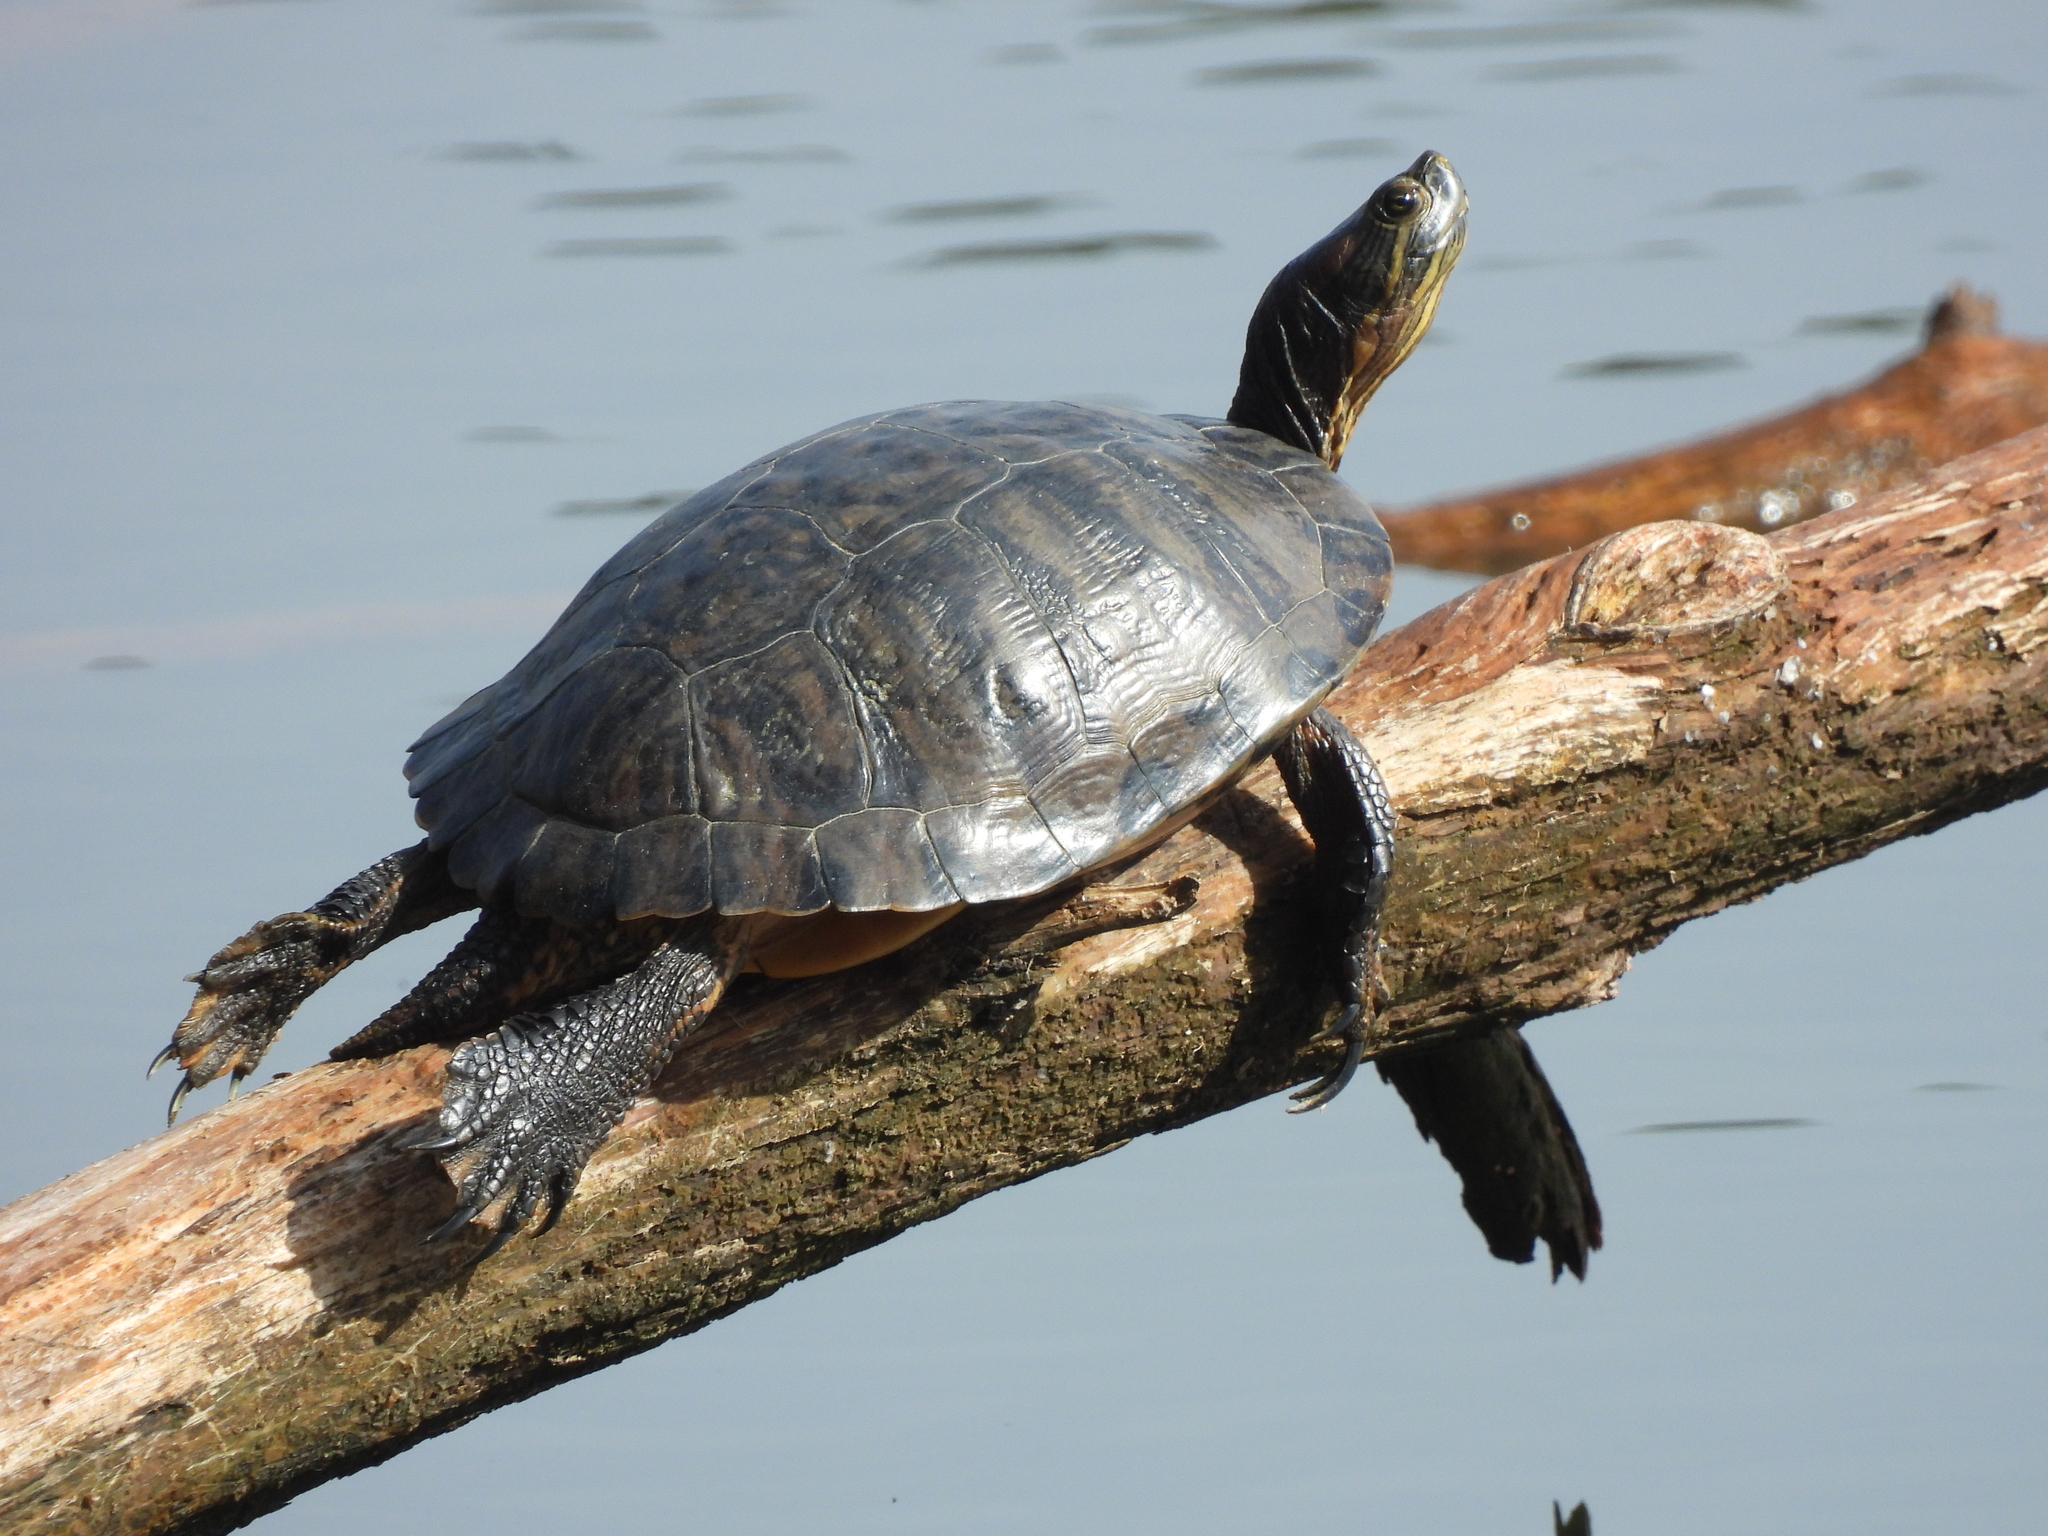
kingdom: Animalia
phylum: Chordata
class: Testudines
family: Emydidae
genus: Trachemys
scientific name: Trachemys scripta
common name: Slider
